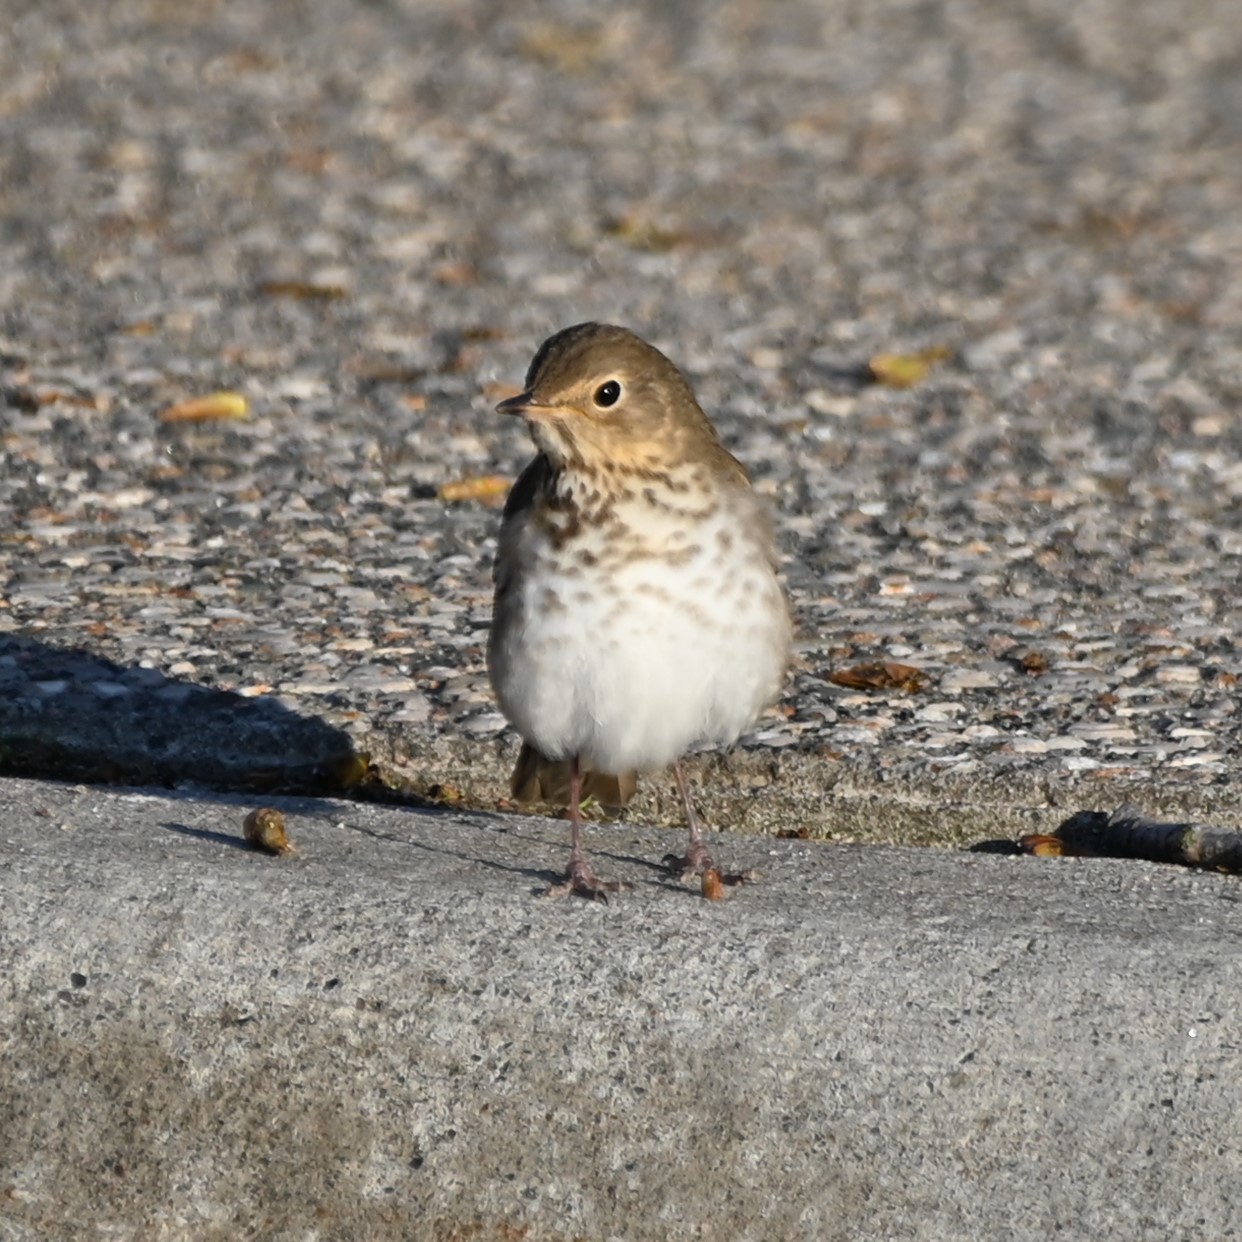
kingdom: Animalia
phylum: Chordata
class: Aves
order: Passeriformes
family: Turdidae
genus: Catharus
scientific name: Catharus ustulatus
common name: Swainson's thrush
